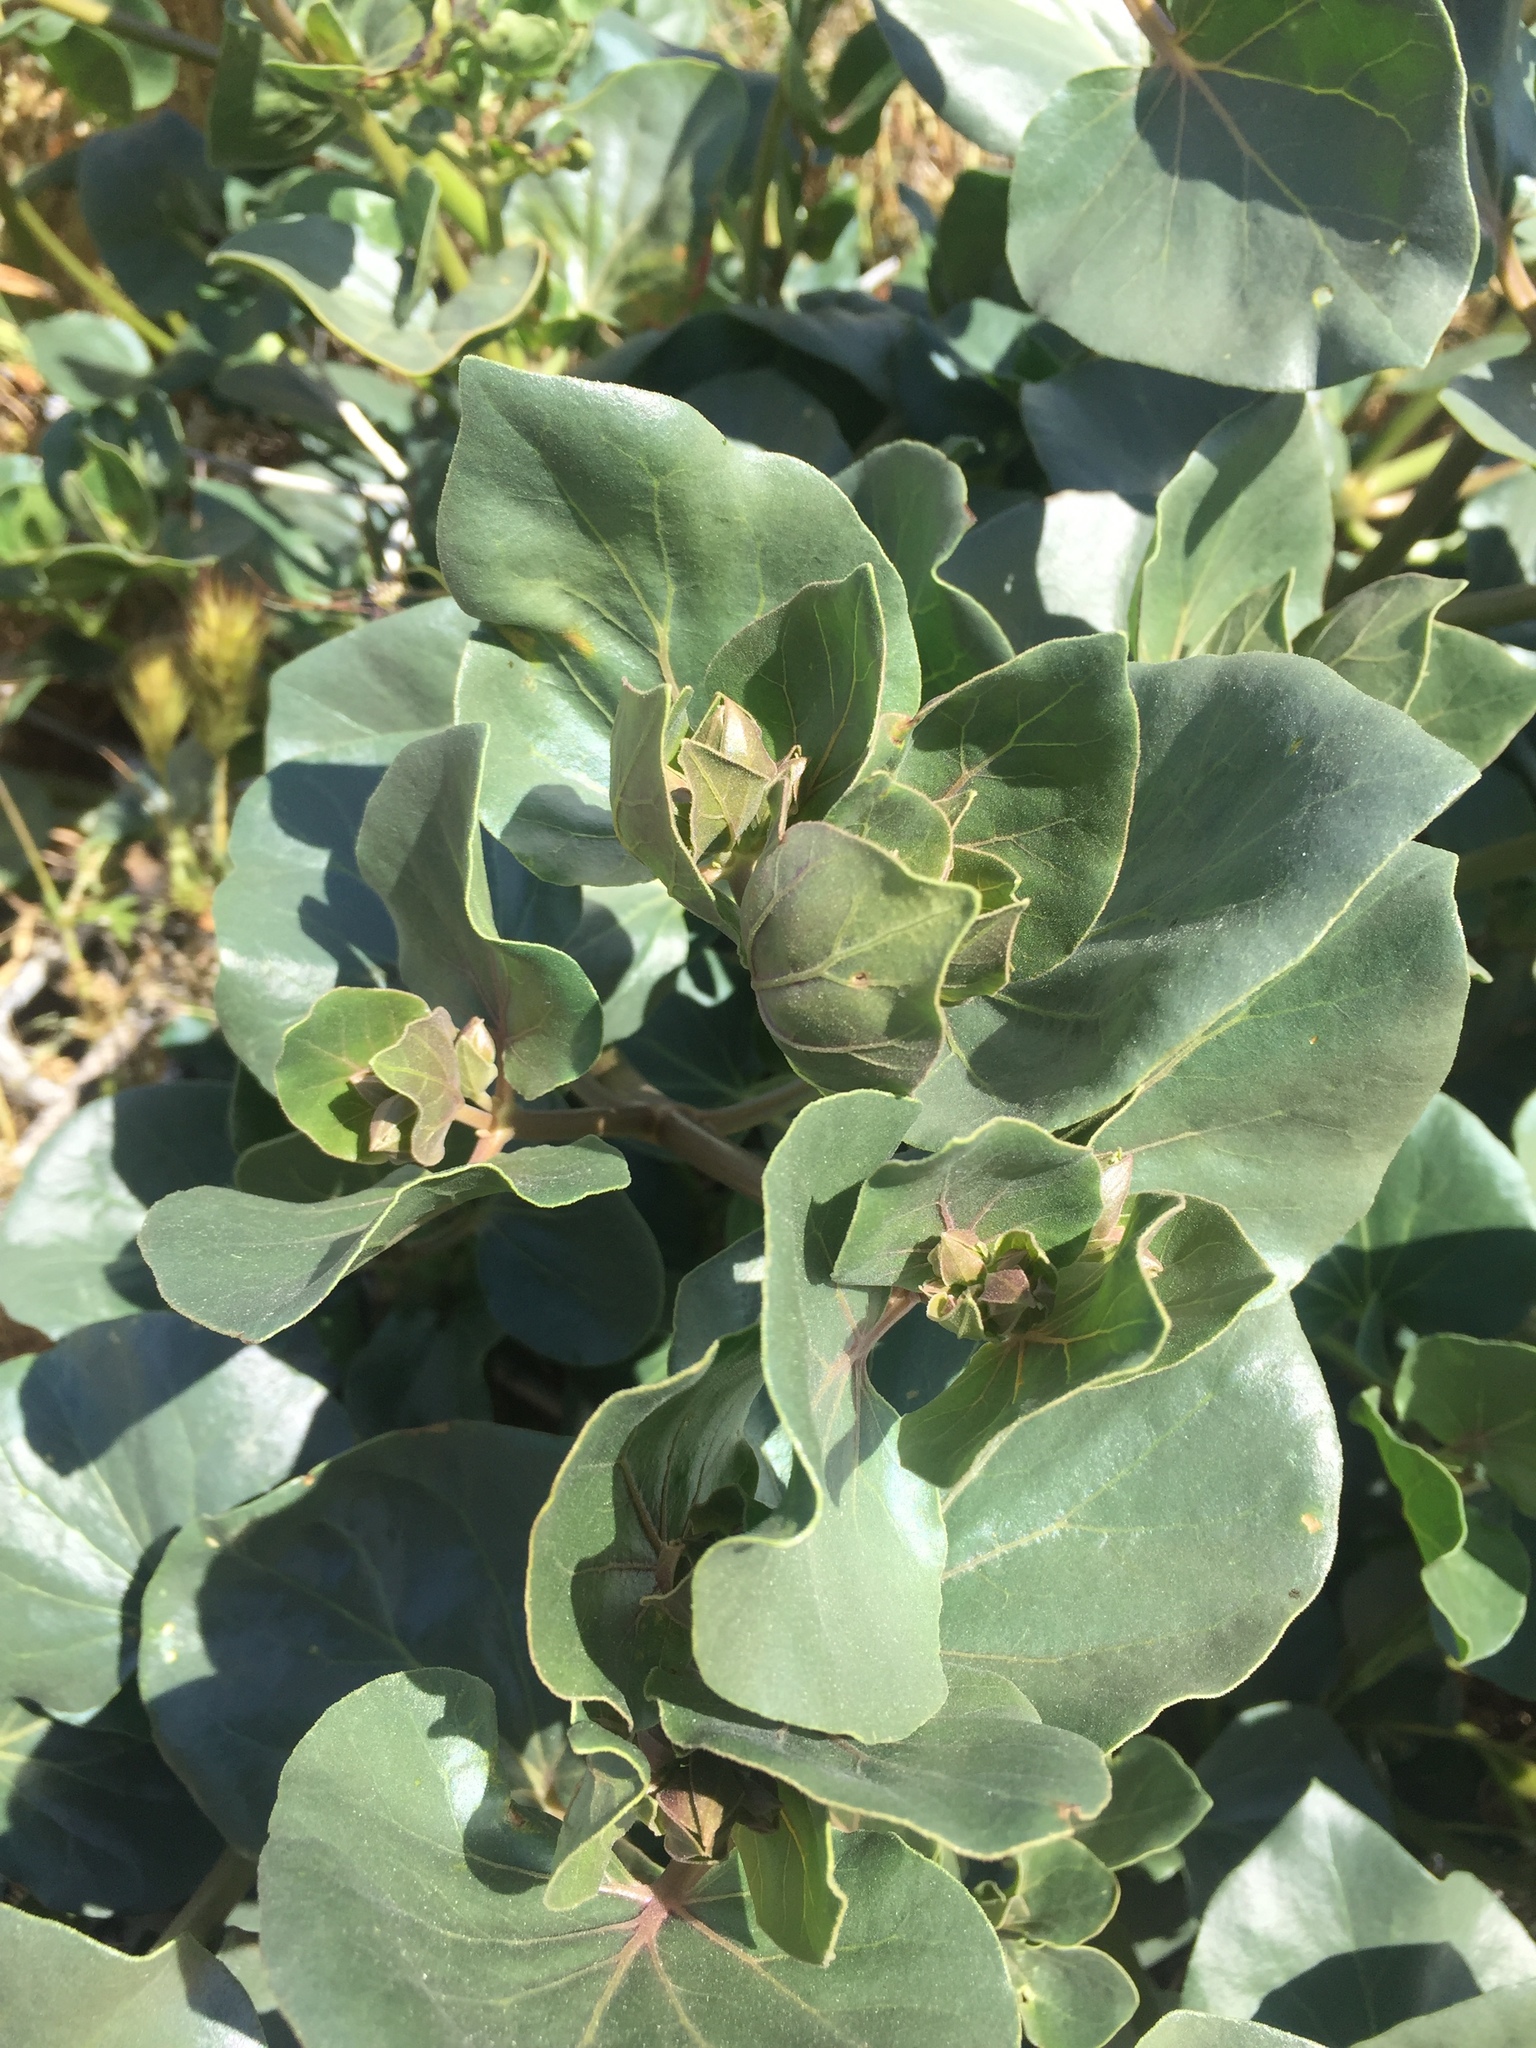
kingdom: Plantae
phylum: Tracheophyta
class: Magnoliopsida
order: Caryophyllales
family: Nyctaginaceae
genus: Mirabilis
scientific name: Mirabilis multiflora
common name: Froebel's four-o'clock
